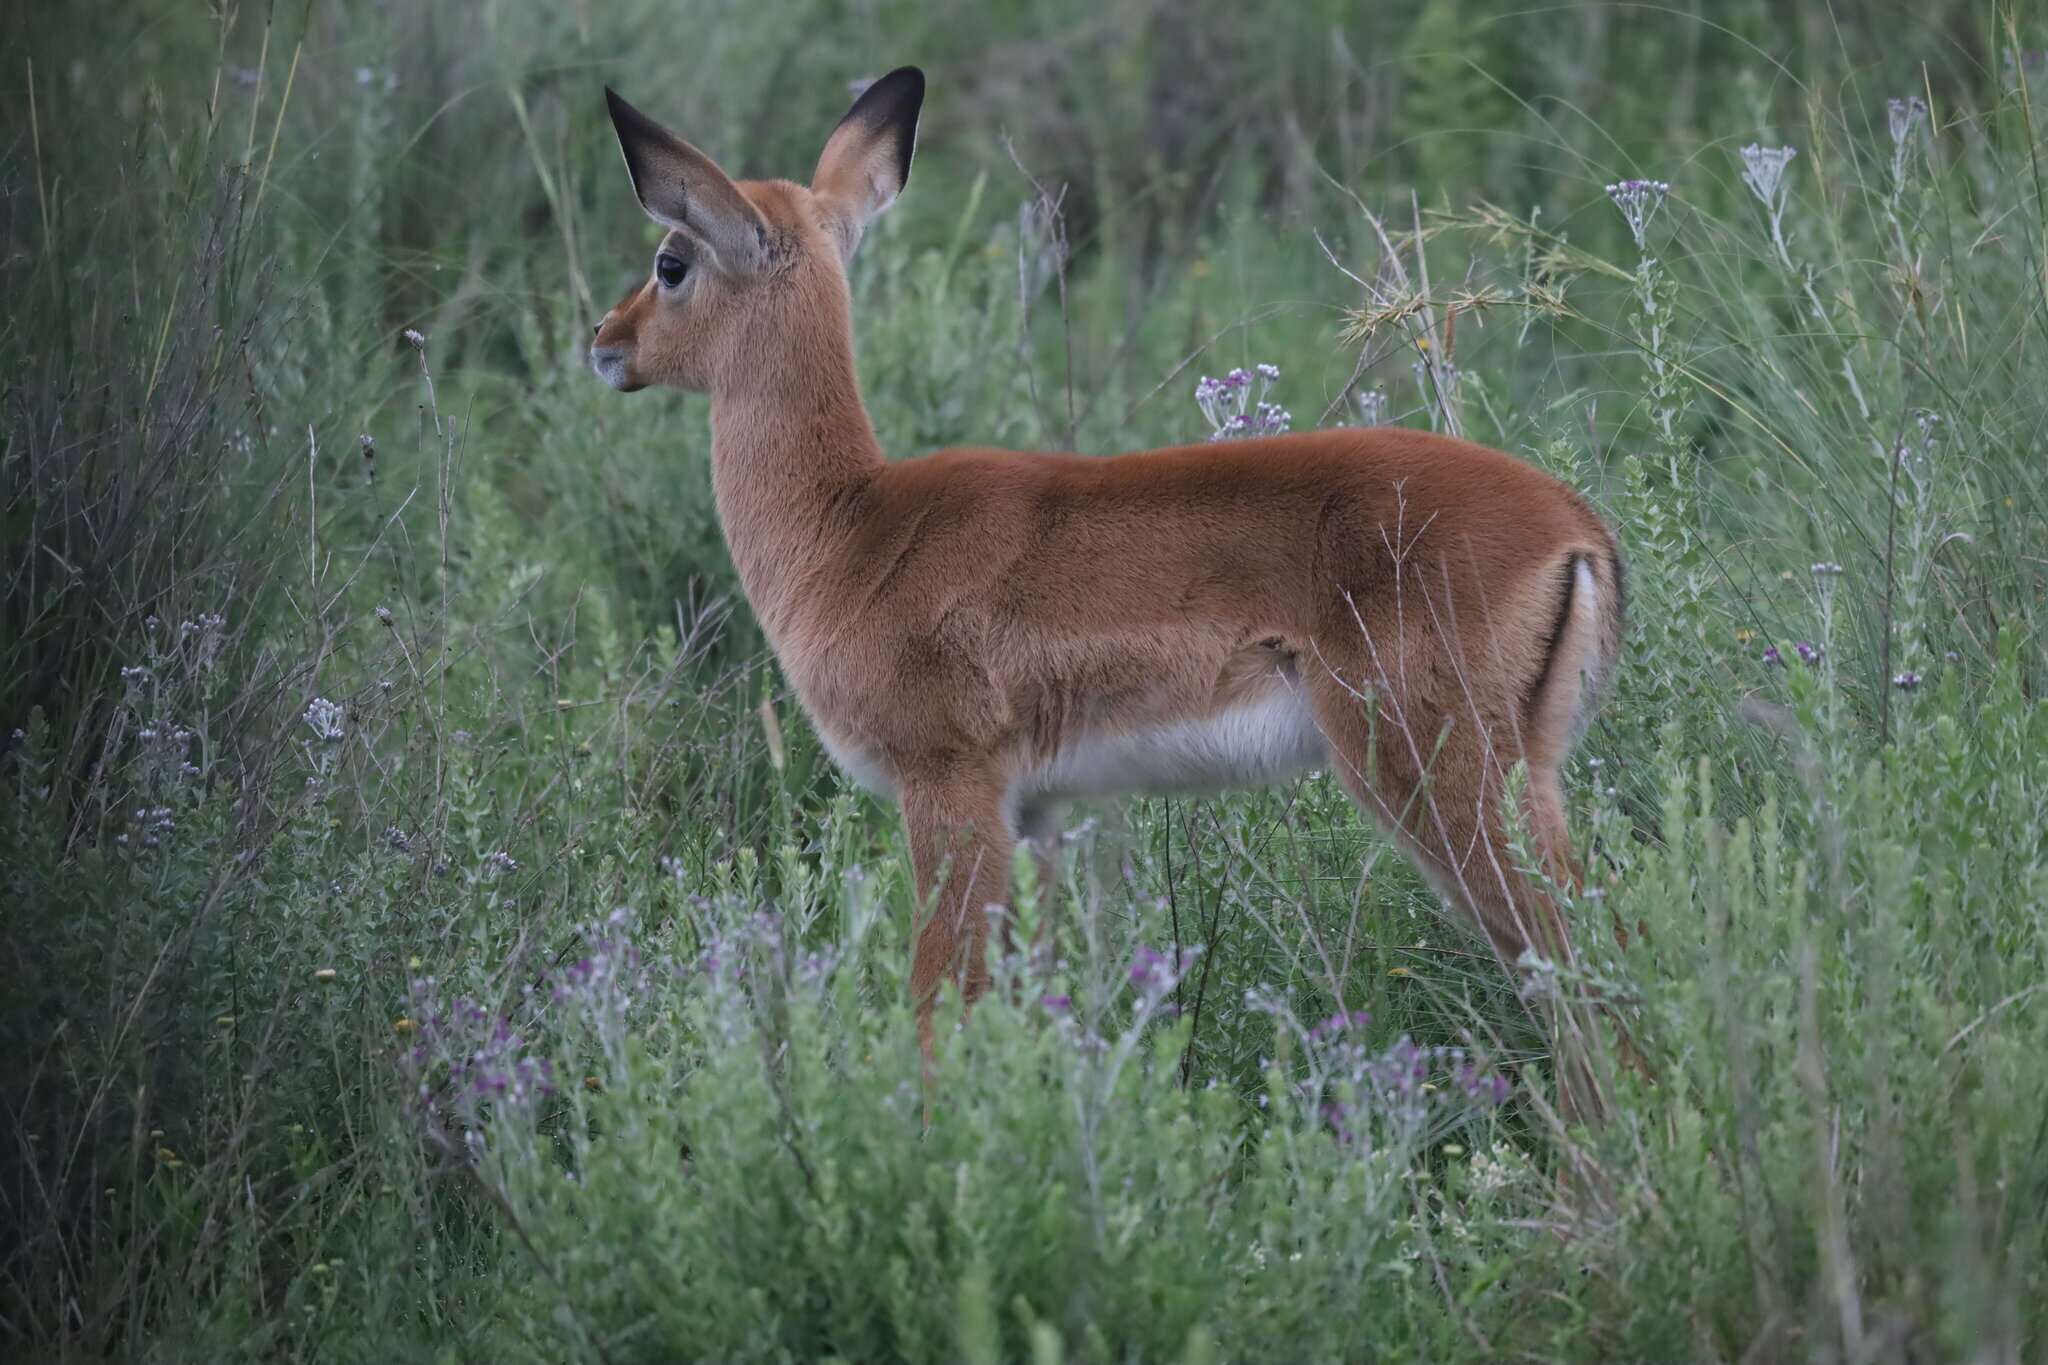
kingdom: Animalia
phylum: Chordata
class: Mammalia
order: Artiodactyla
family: Bovidae
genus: Aepyceros
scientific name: Aepyceros melampus
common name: Impala
